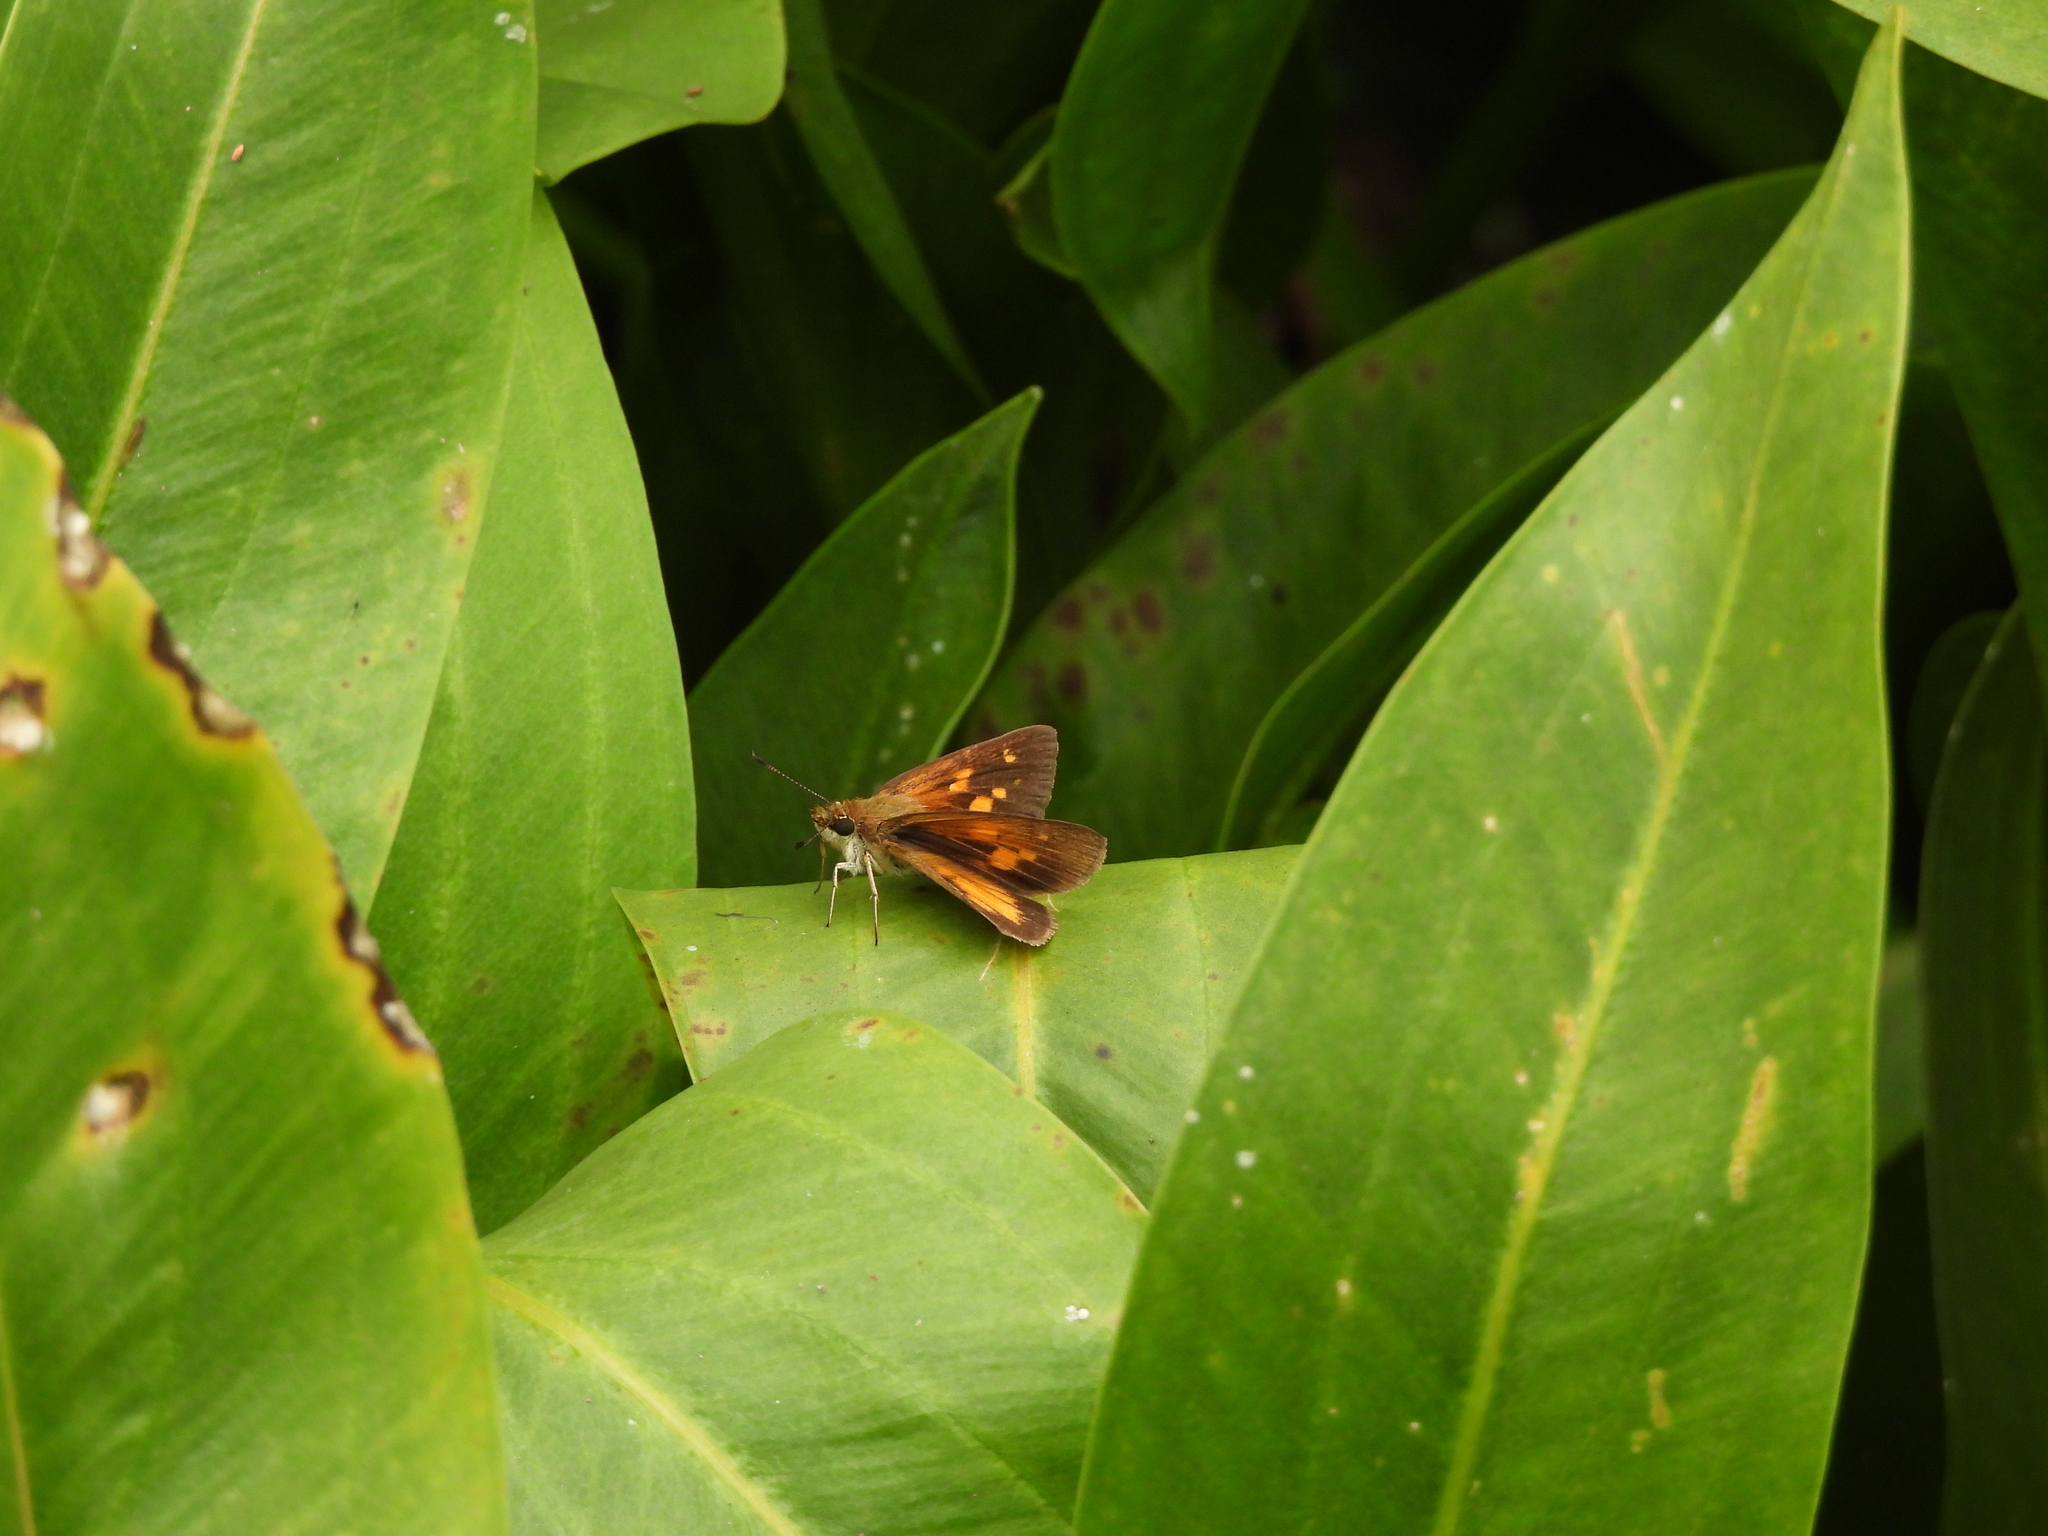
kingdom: Animalia
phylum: Arthropoda
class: Insecta
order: Lepidoptera
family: Hesperiidae
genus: Poanes
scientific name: Poanes viator
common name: Broad-winged skipper
